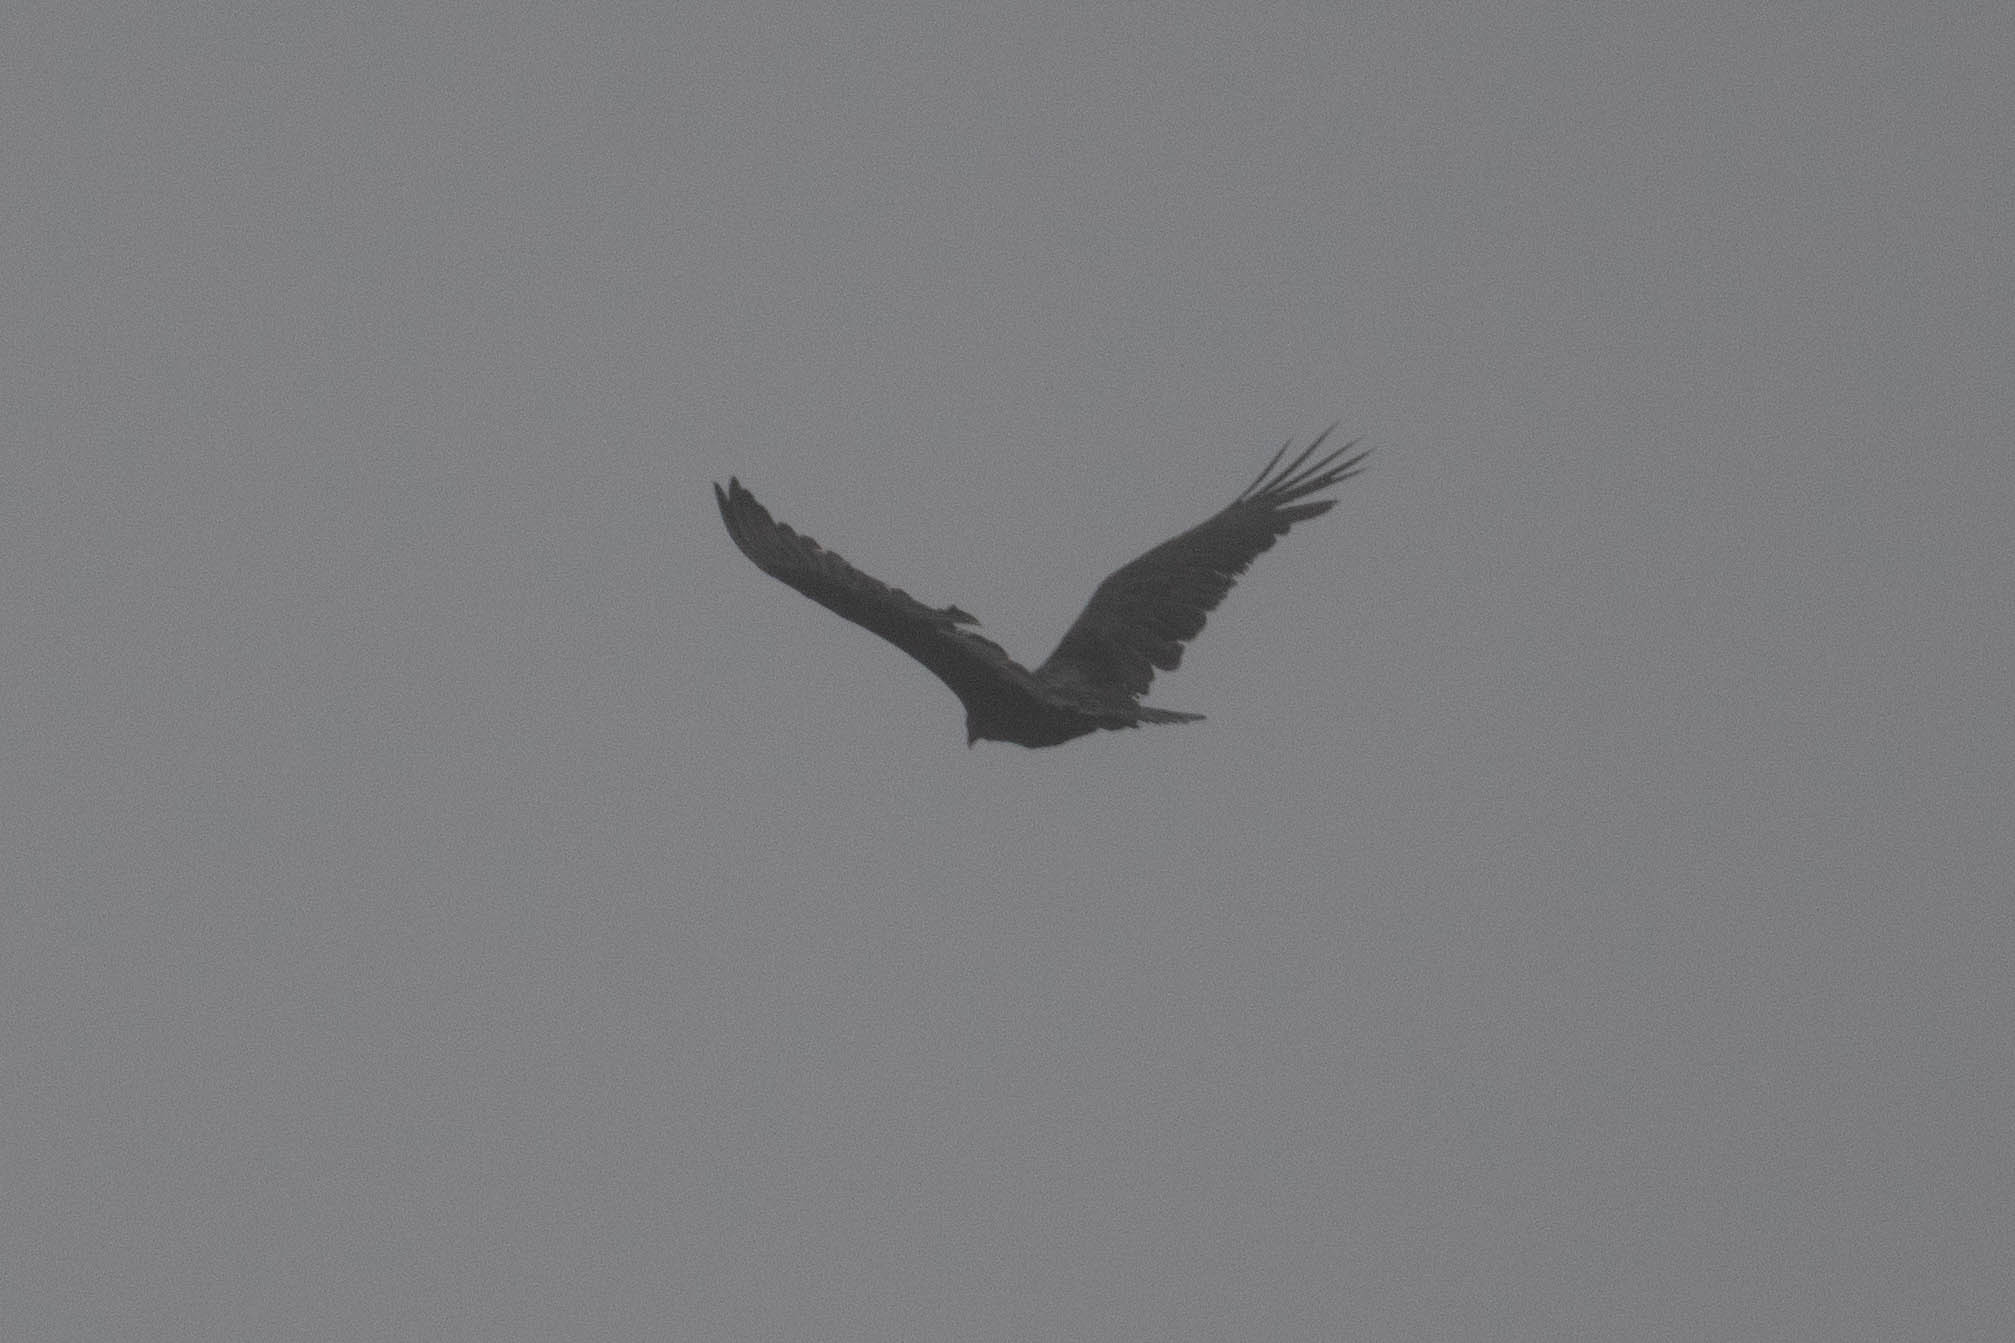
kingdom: Animalia
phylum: Chordata
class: Aves
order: Accipitriformes
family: Cathartidae
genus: Cathartes
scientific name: Cathartes aura
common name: Turkey vulture
